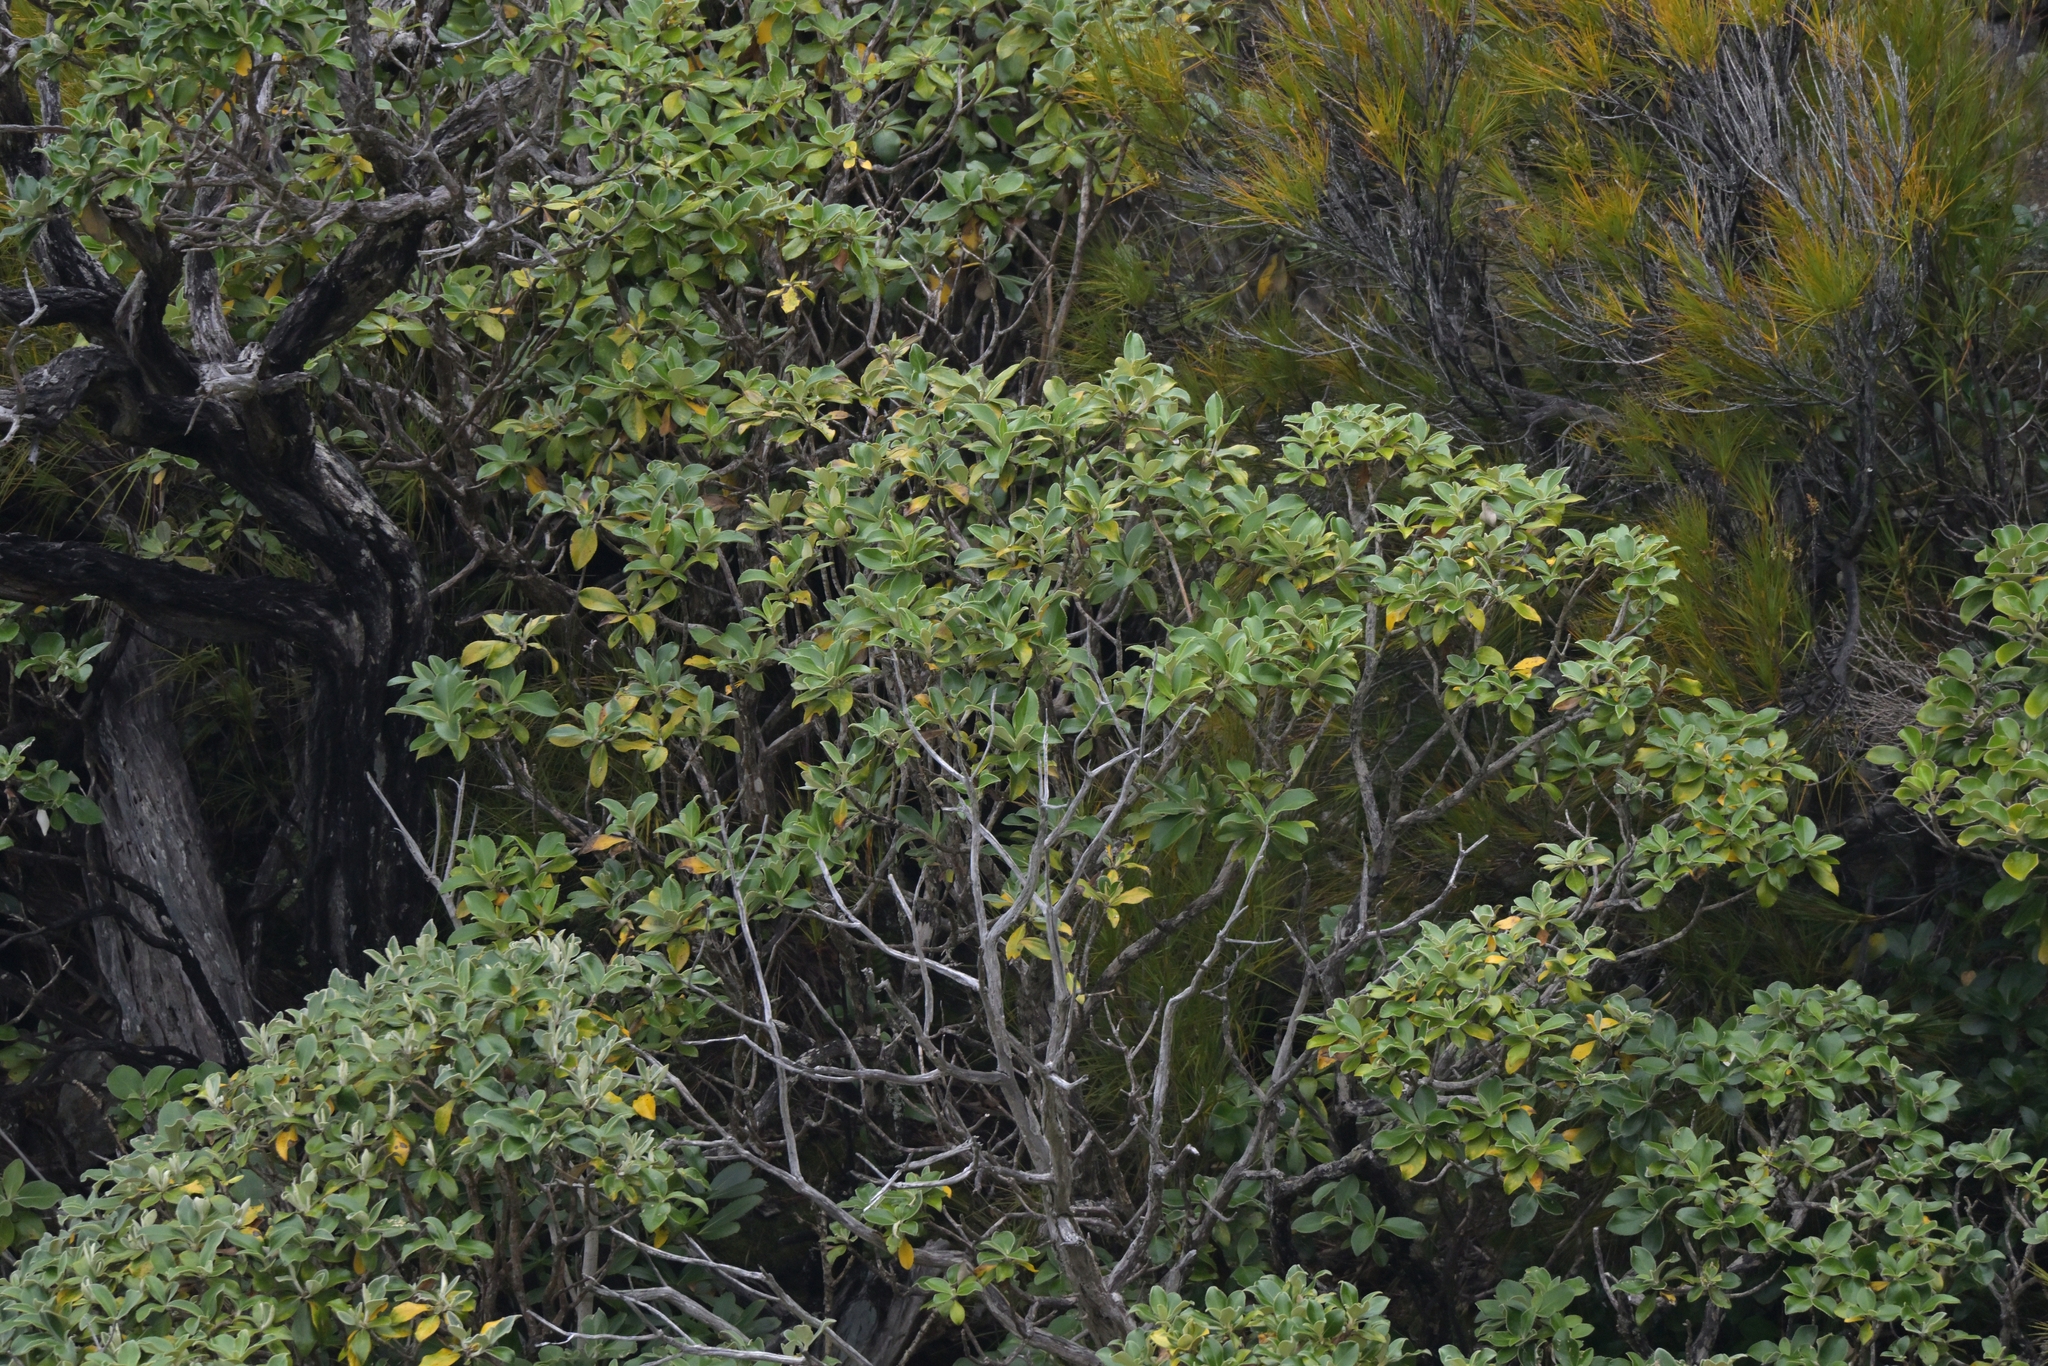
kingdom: Plantae
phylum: Tracheophyta
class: Magnoliopsida
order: Asterales
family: Asteraceae
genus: Macrolearia
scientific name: Macrolearia colensoi
